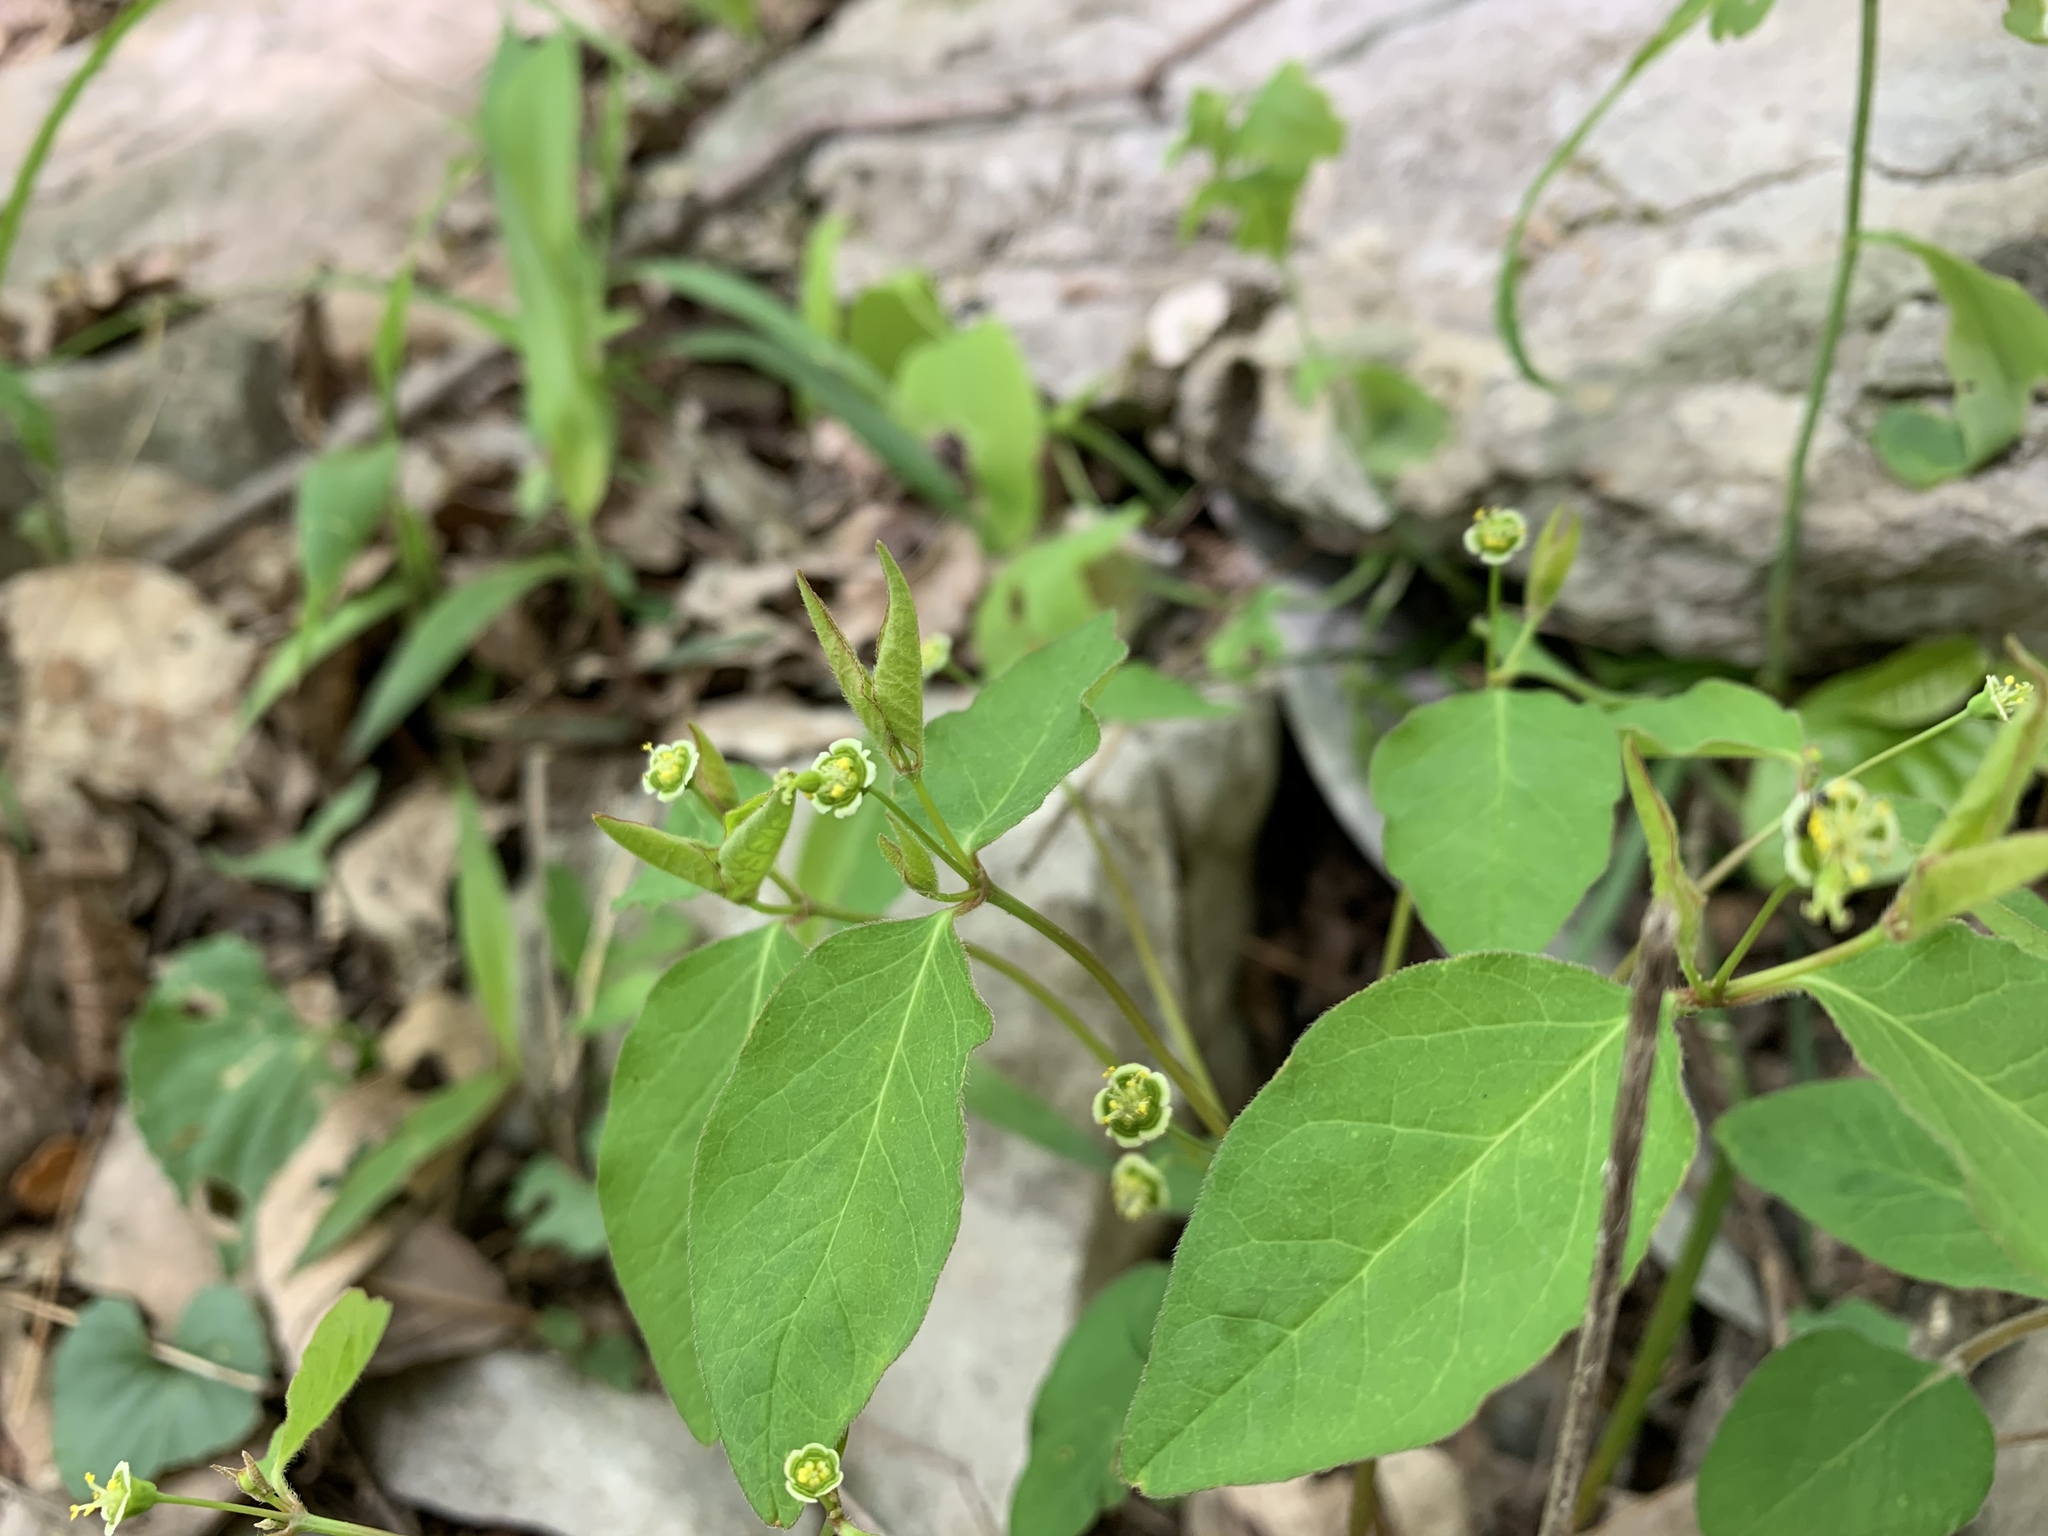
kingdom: Plantae
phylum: Tracheophyta
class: Magnoliopsida
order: Malpighiales
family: Euphorbiaceae
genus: Euphorbia
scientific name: Euphorbia mercurialina
